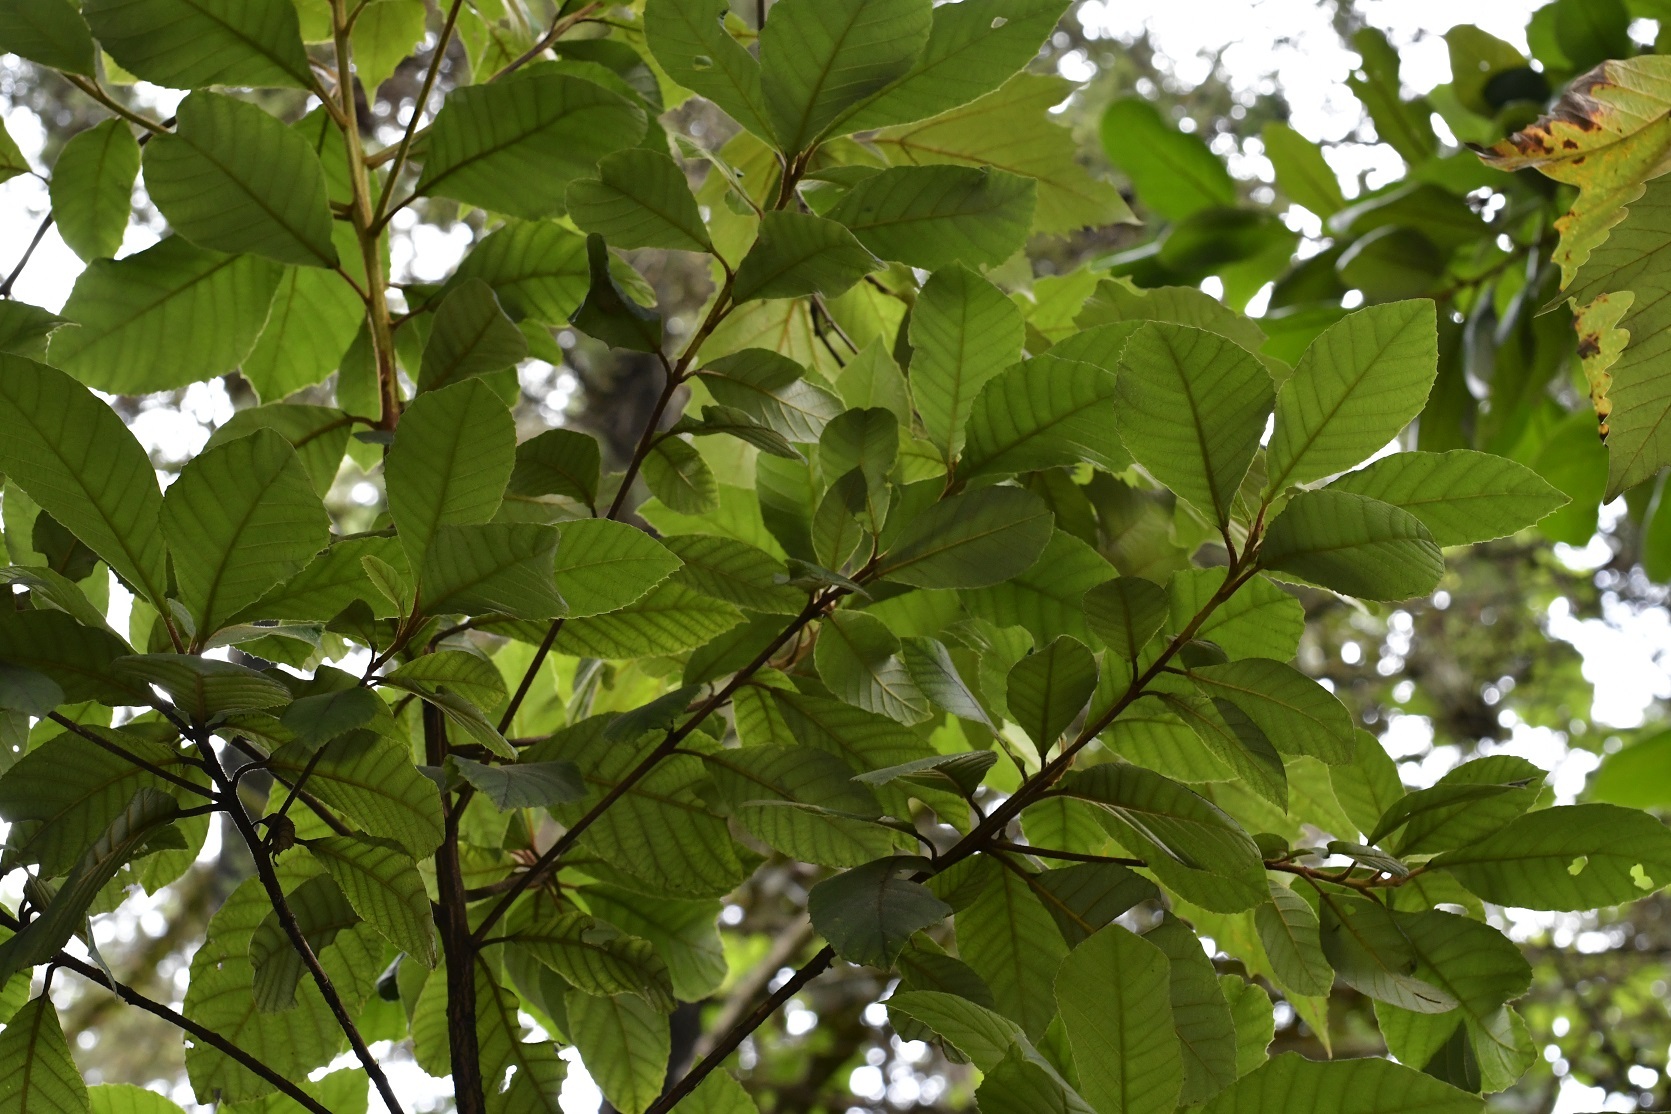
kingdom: Plantae
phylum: Tracheophyta
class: Magnoliopsida
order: Ericales
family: Clethraceae
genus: Clethra
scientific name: Clethra mexicana
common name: Nance macho
